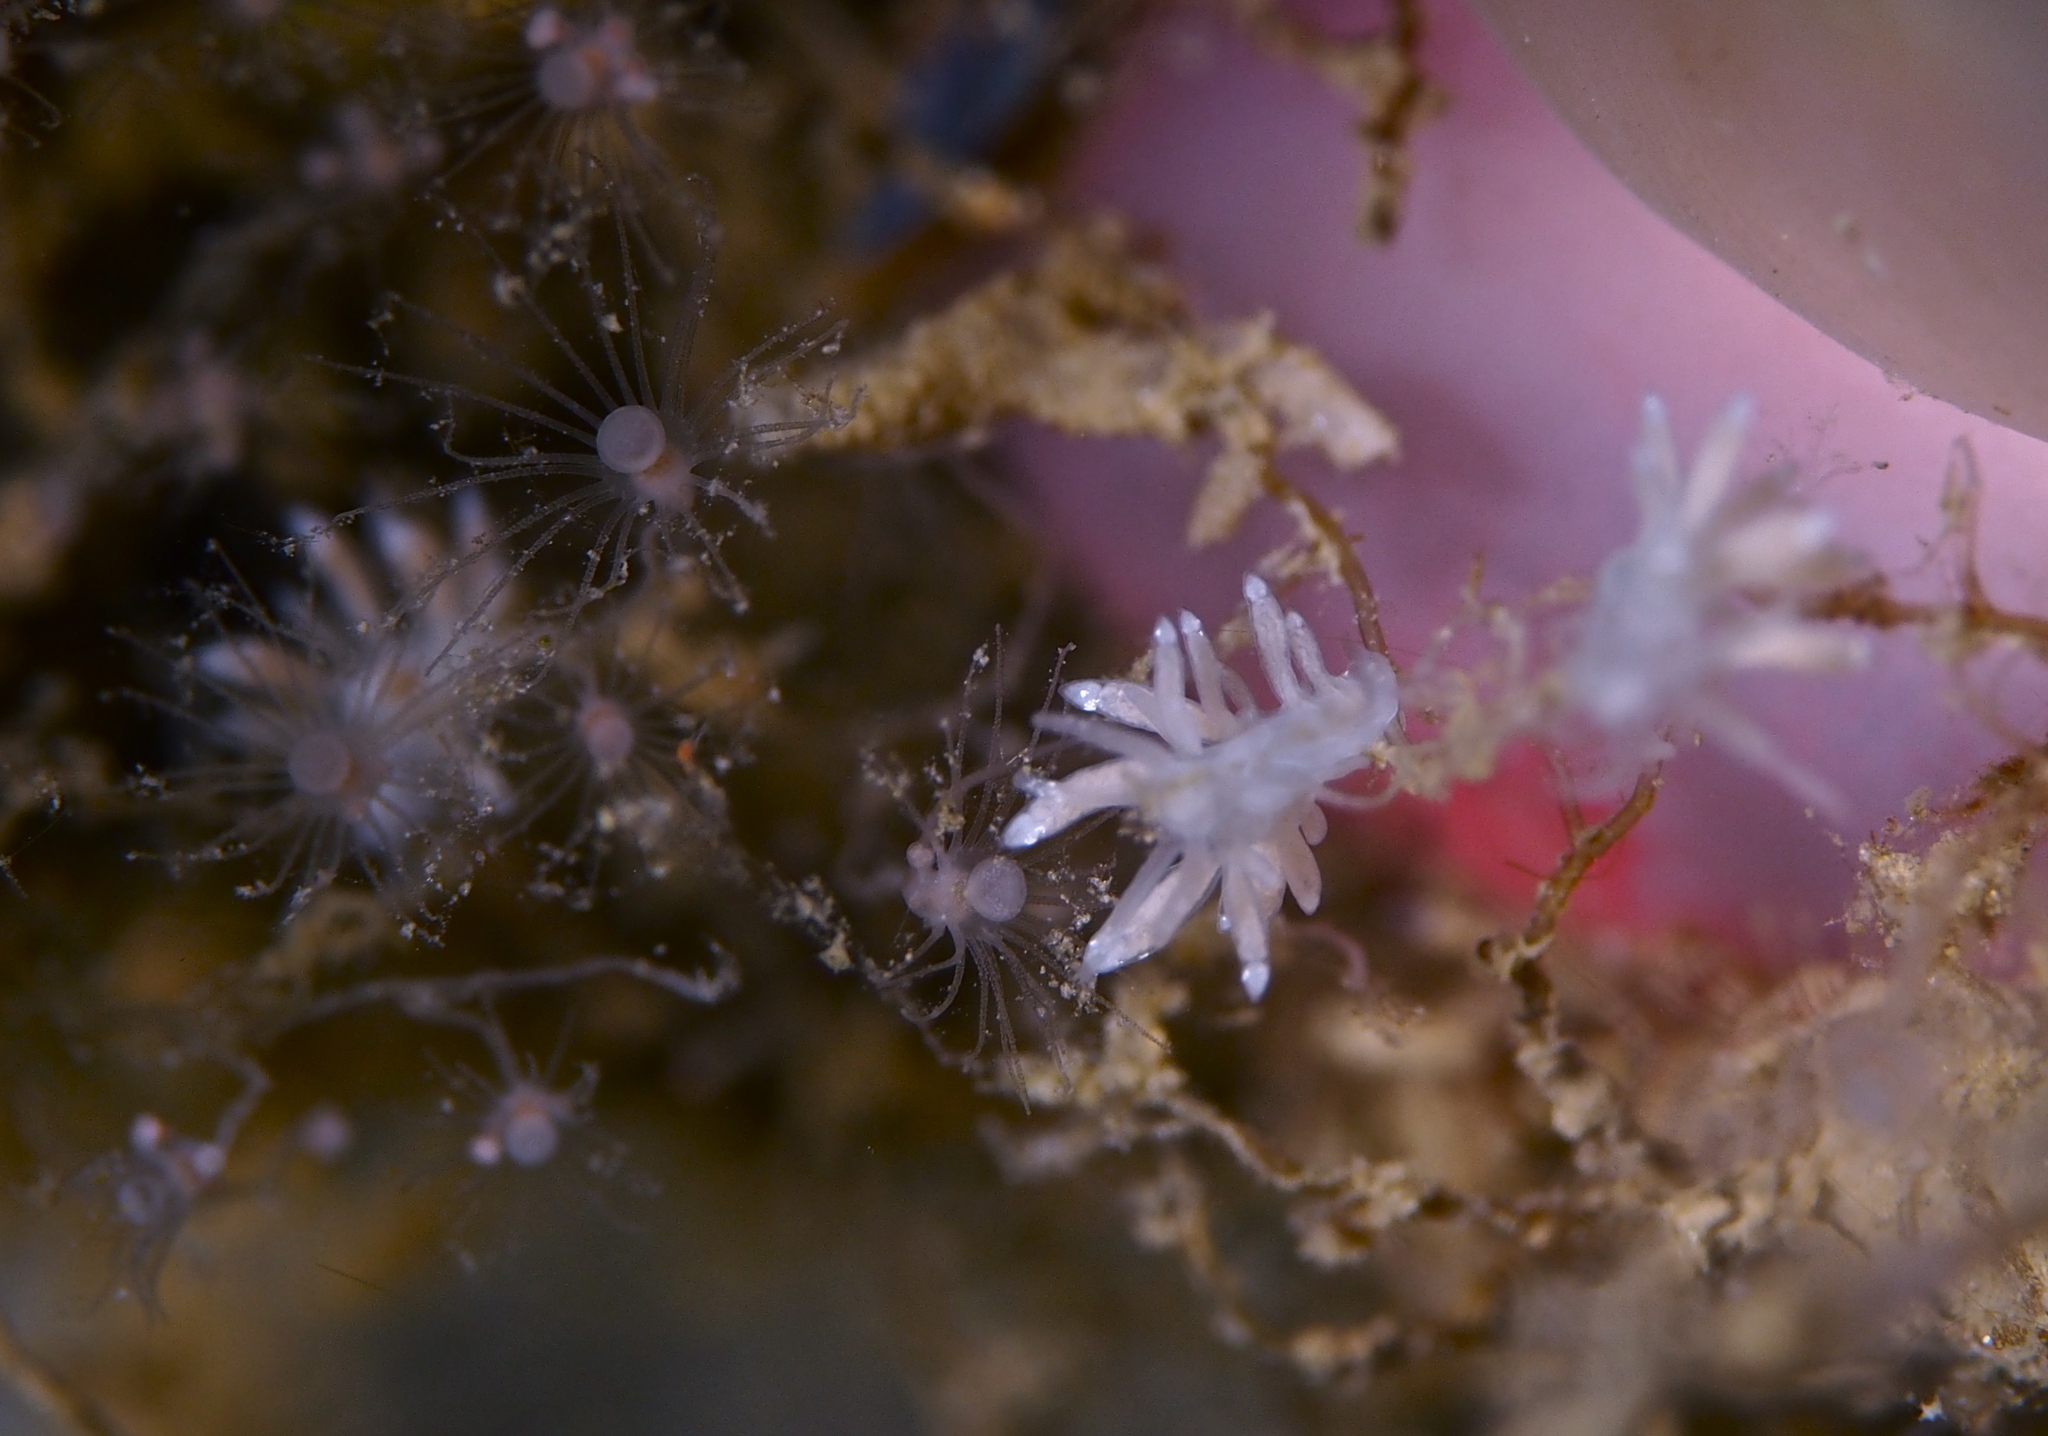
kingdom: Animalia
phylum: Mollusca
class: Gastropoda
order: Nudibranchia
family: Tergipedidae
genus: Tergipes
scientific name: Tergipes tergipes
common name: Johnston's balloon eolis
